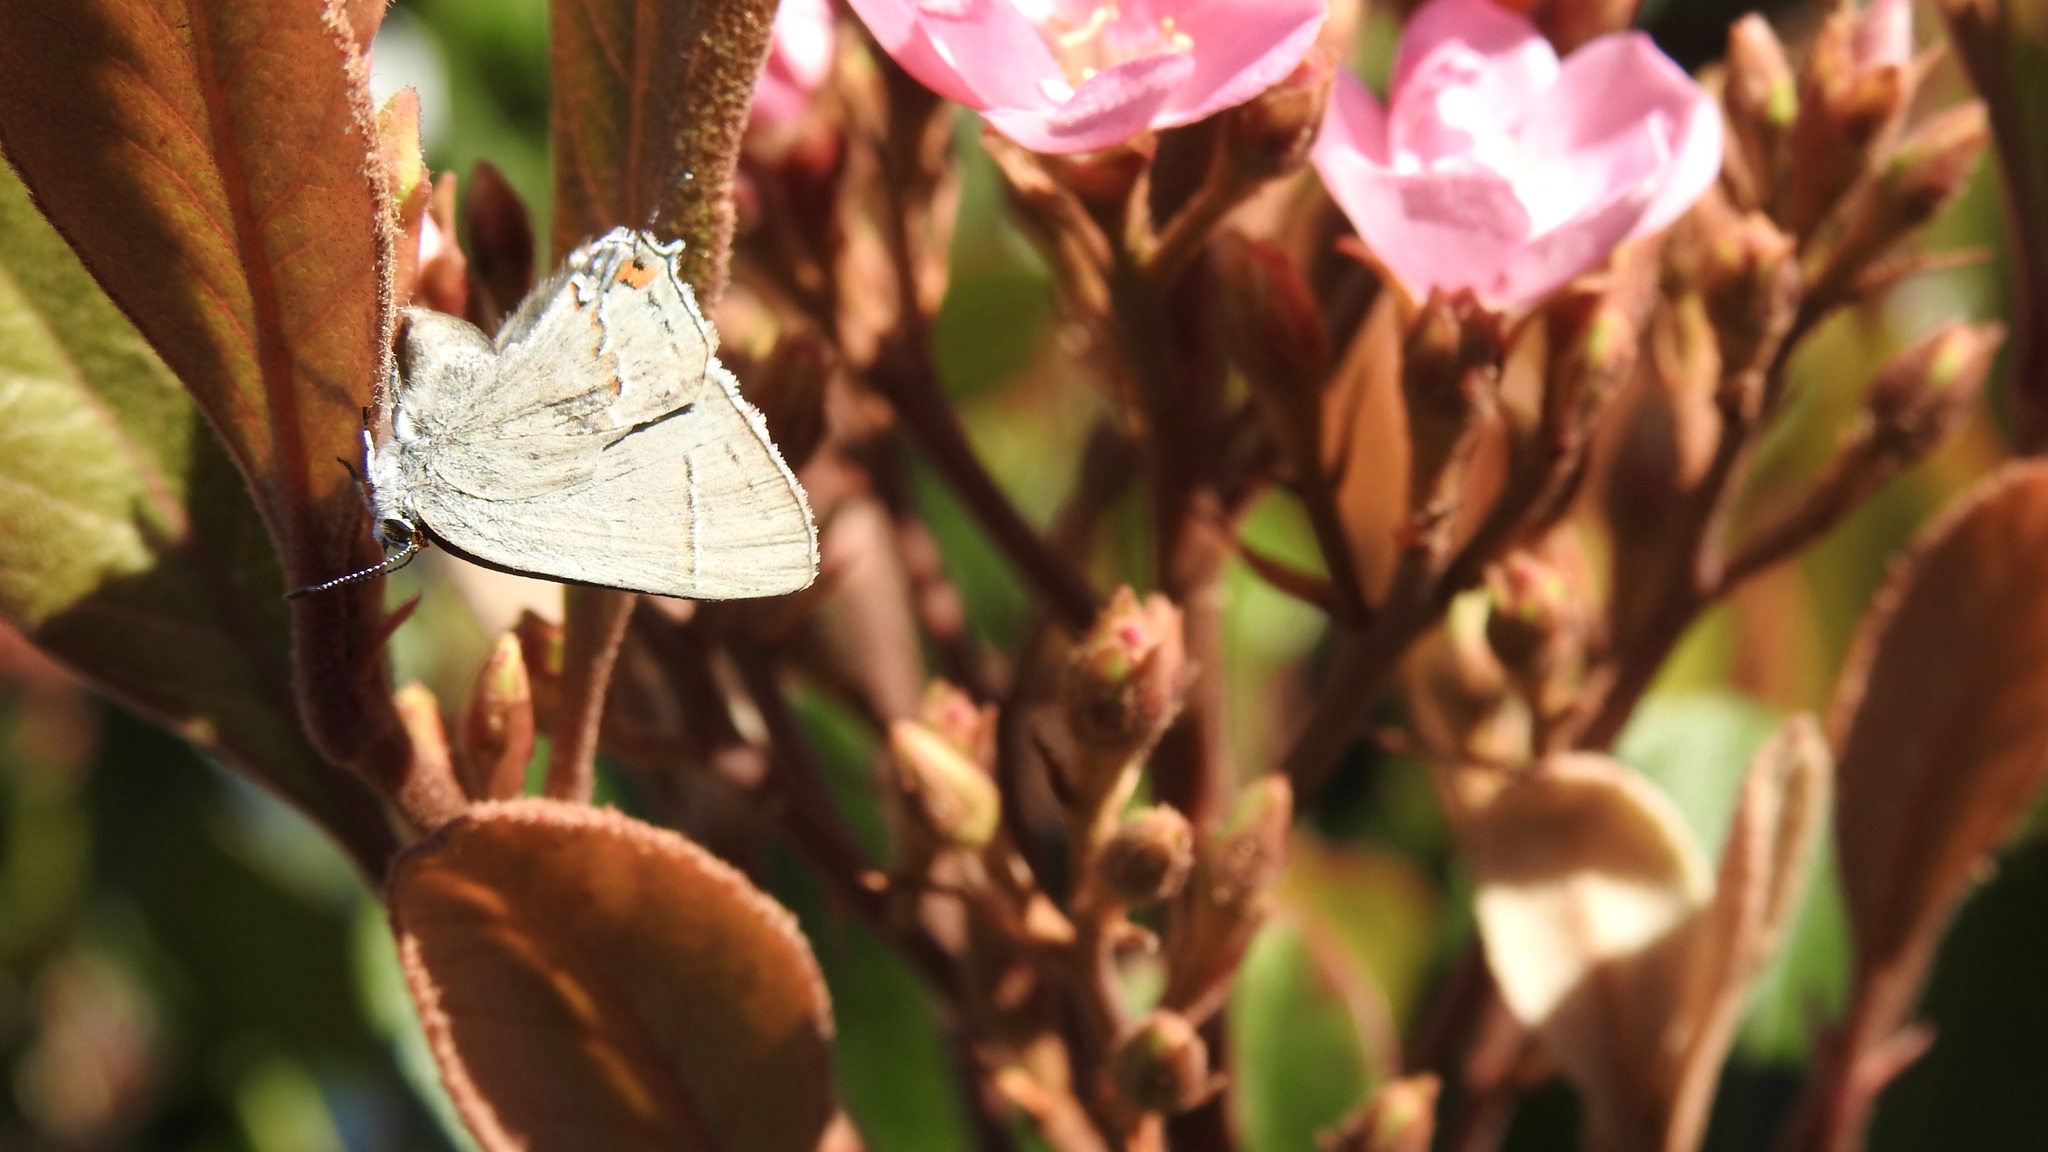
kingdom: Animalia
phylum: Arthropoda
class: Insecta
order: Lepidoptera
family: Lycaenidae
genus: Strymon
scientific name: Strymon melinus
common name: Gray hairstreak
